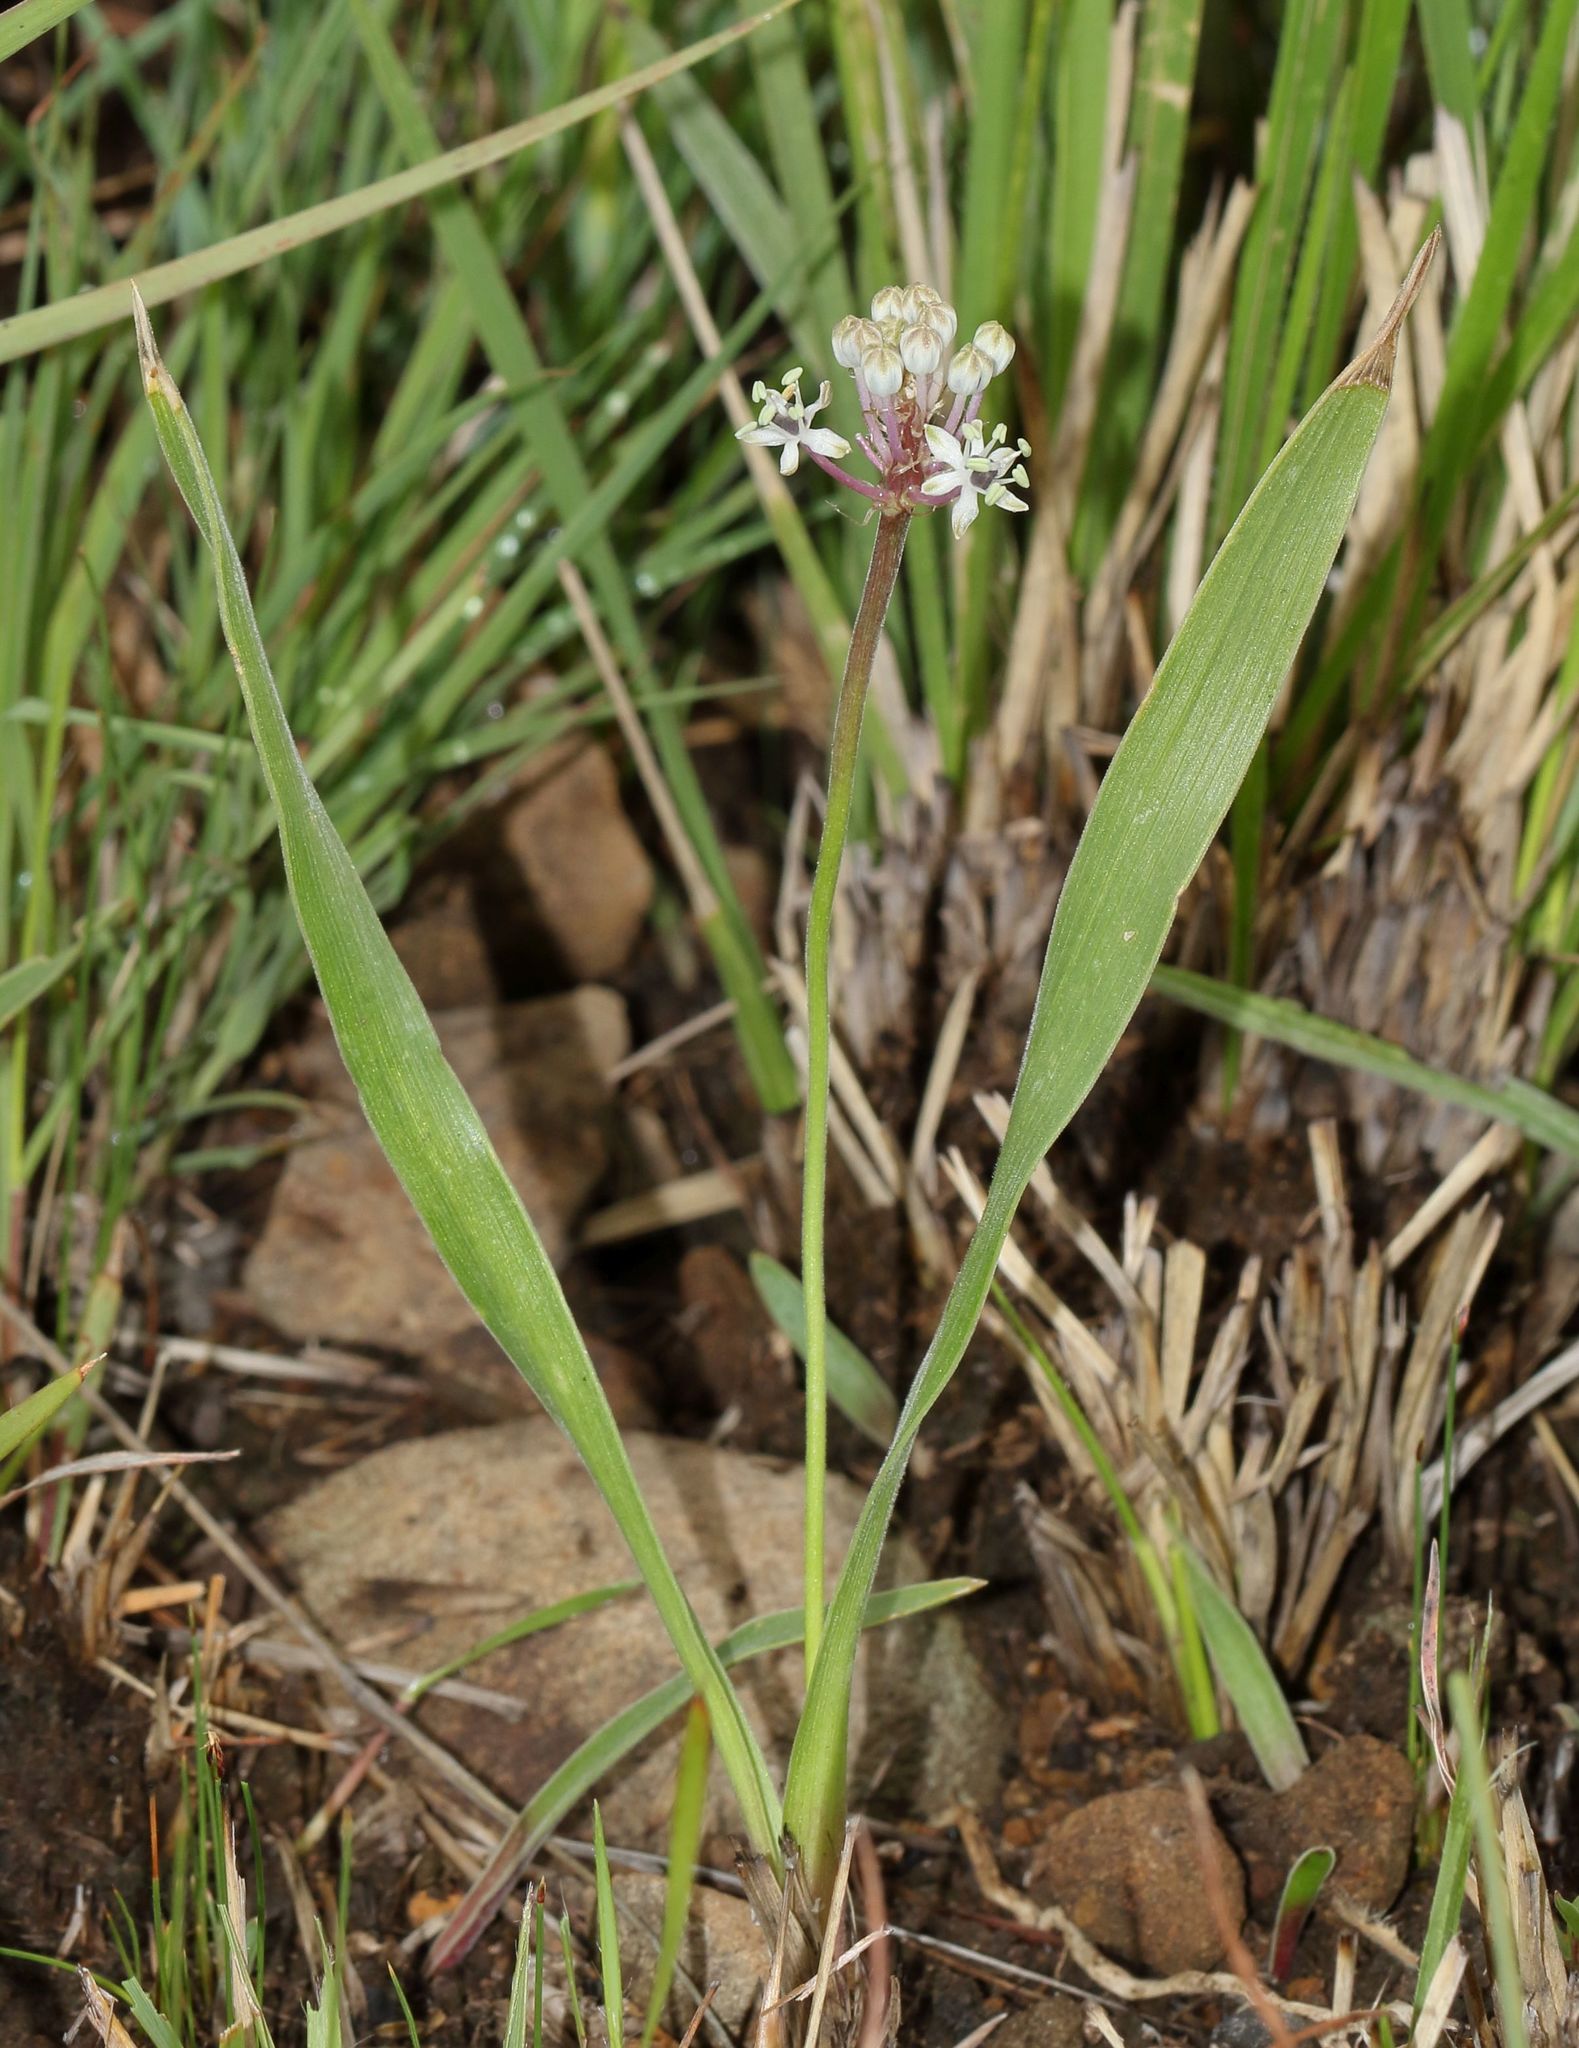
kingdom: Plantae
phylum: Tracheophyta
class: Liliopsida
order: Asparagales
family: Asparagaceae
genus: Schizocarphus
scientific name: Schizocarphus nervosus
